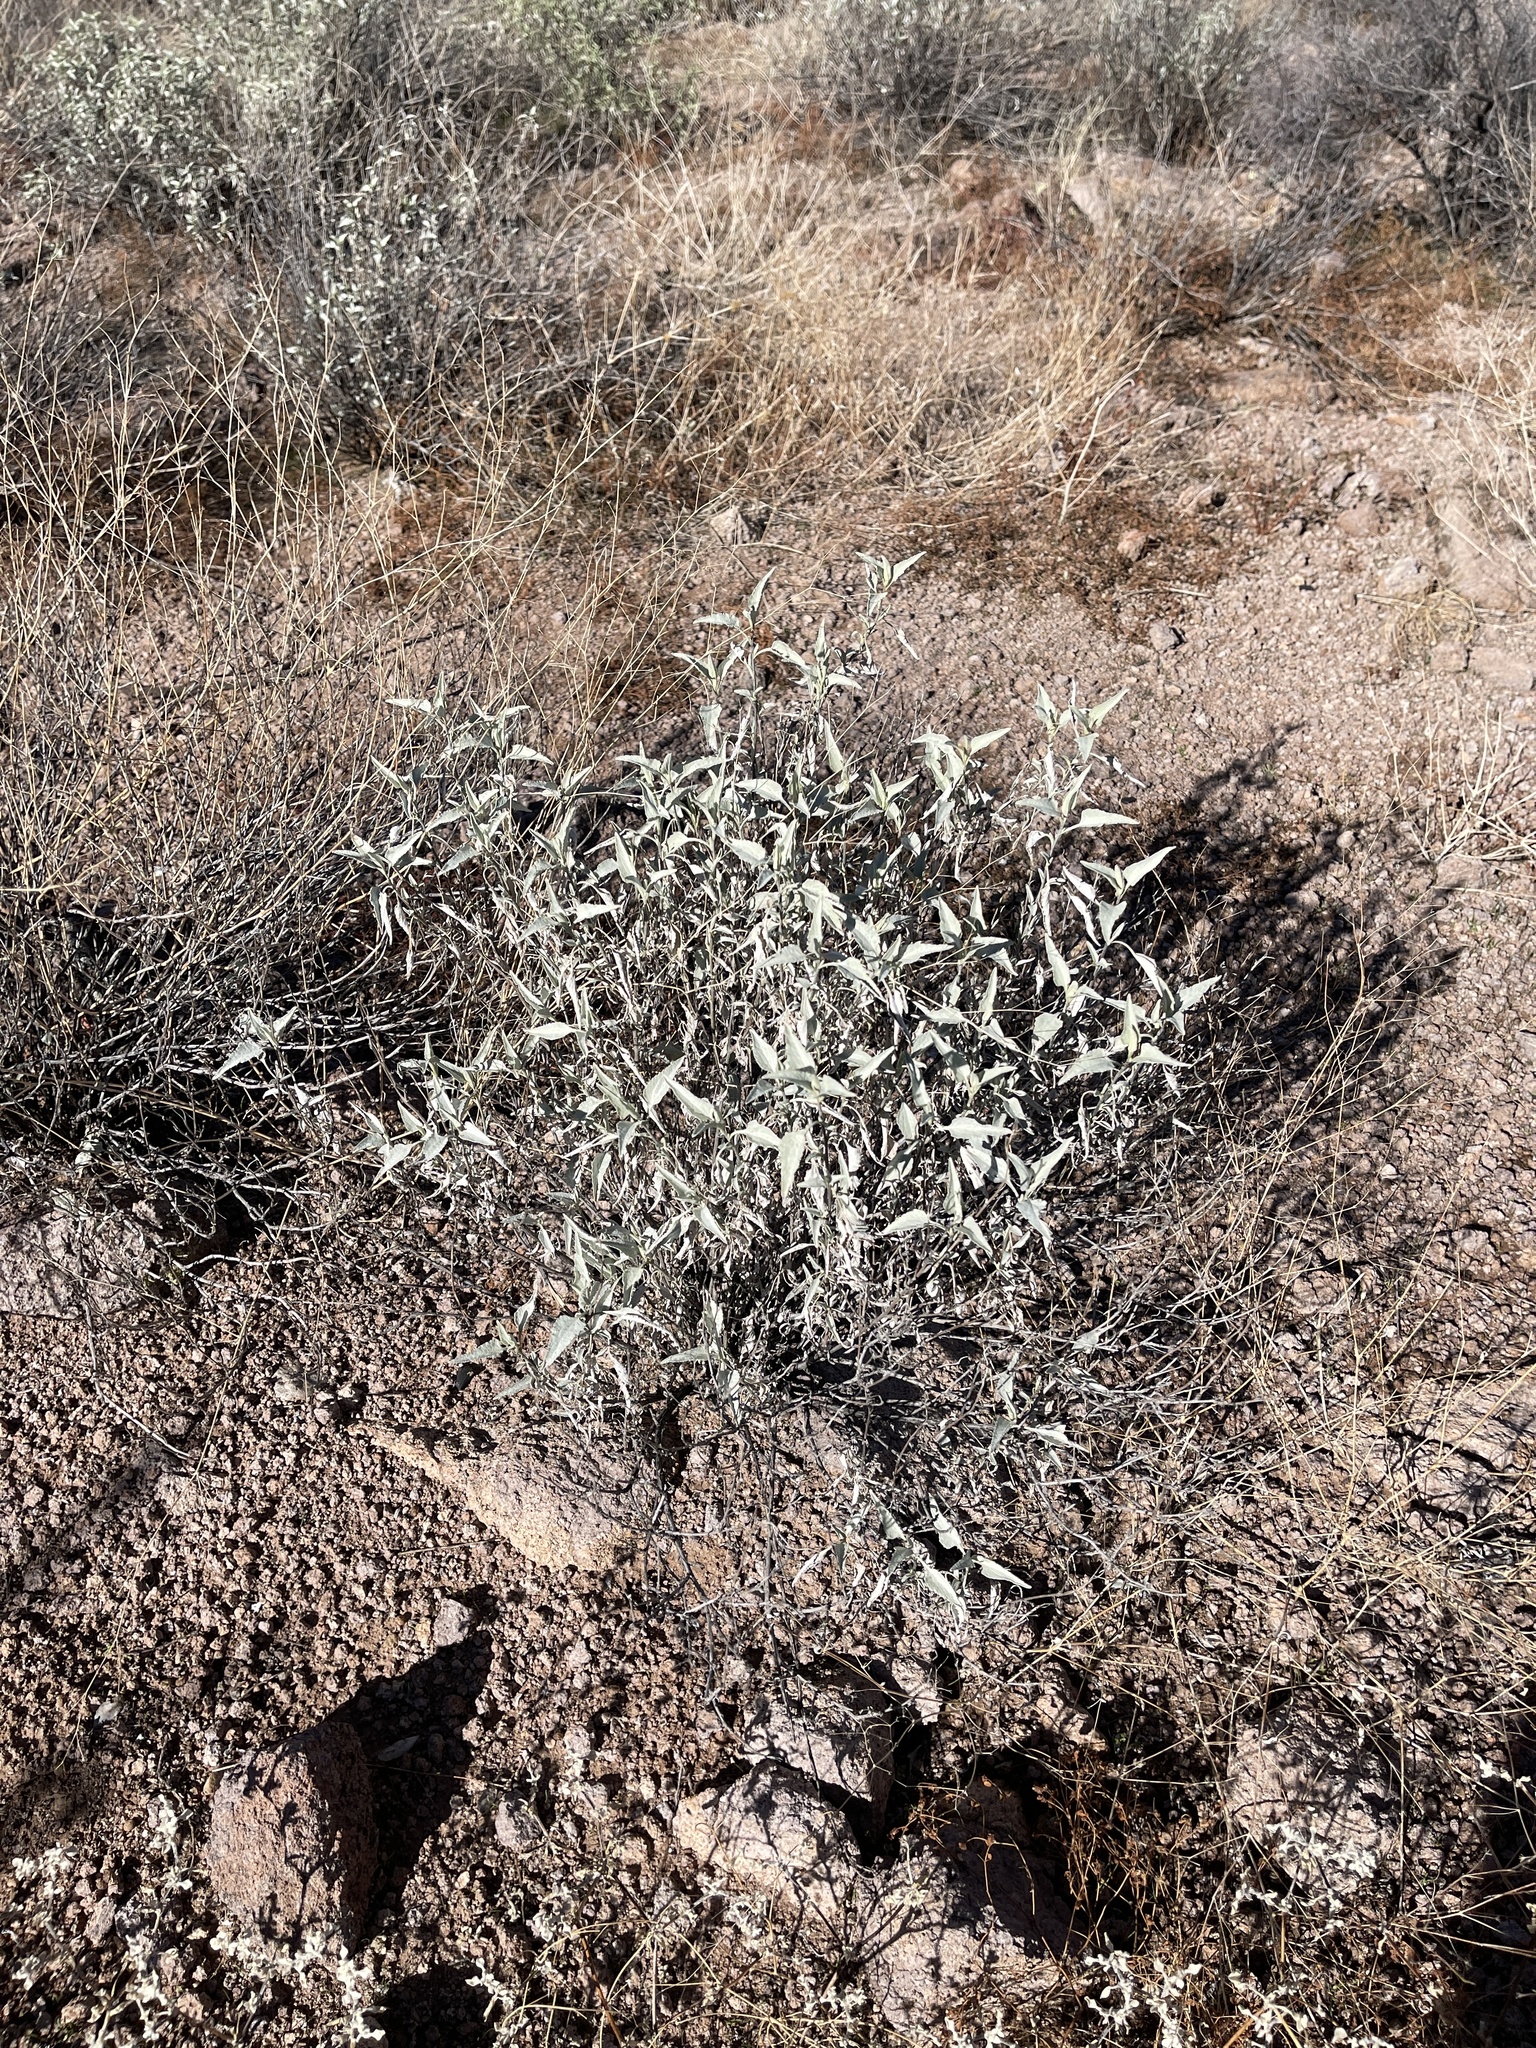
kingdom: Plantae
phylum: Tracheophyta
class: Magnoliopsida
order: Asterales
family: Asteraceae
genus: Ambrosia
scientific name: Ambrosia deltoidea
